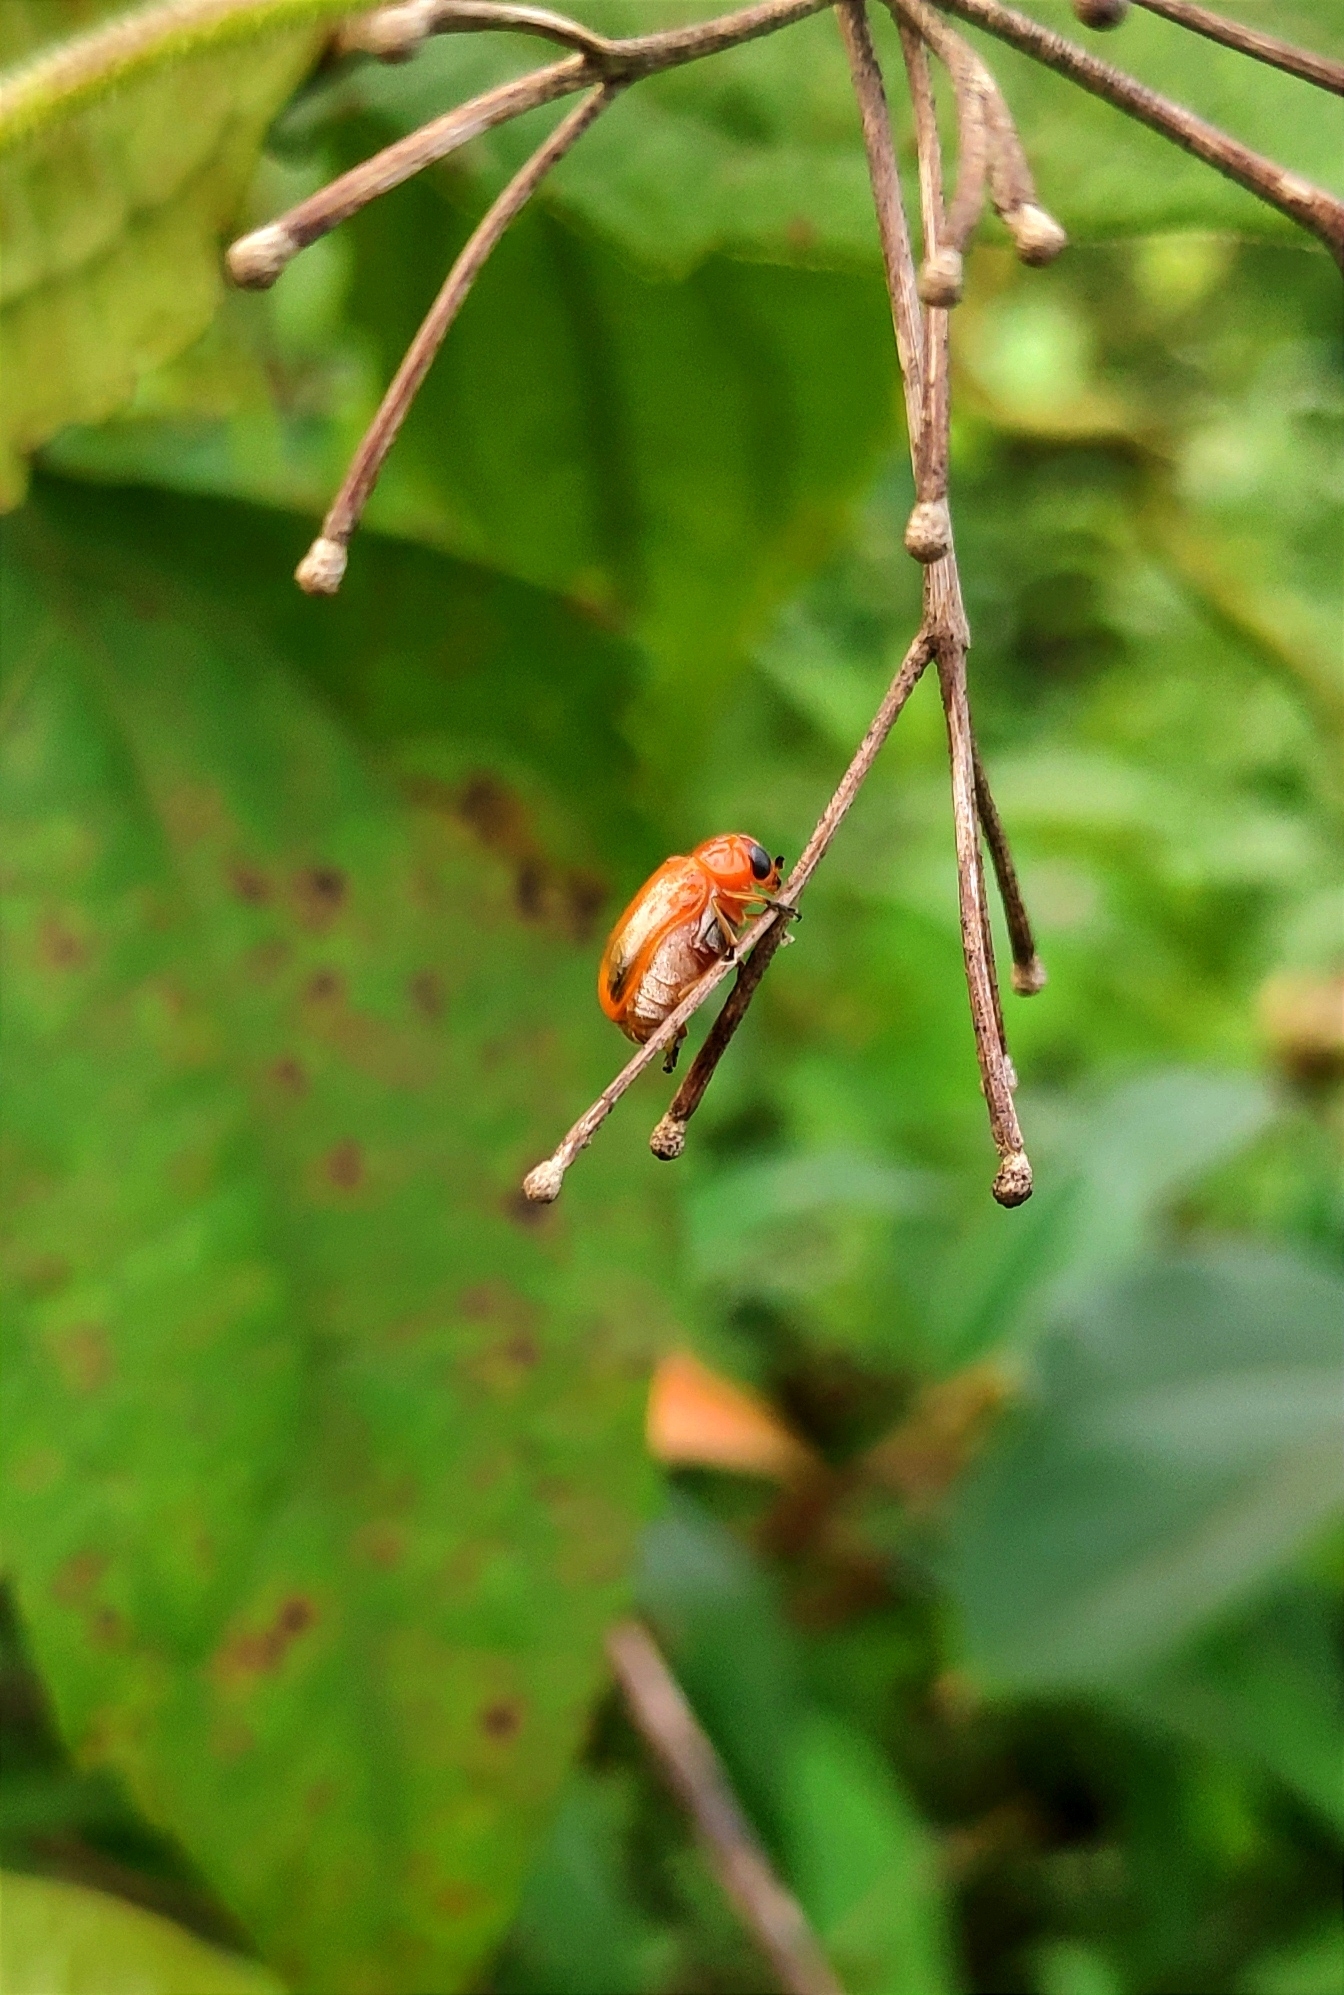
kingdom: Animalia
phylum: Arthropoda
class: Insecta
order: Coleoptera
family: Chrysomelidae
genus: Aulacophora
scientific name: Aulacophora indica
